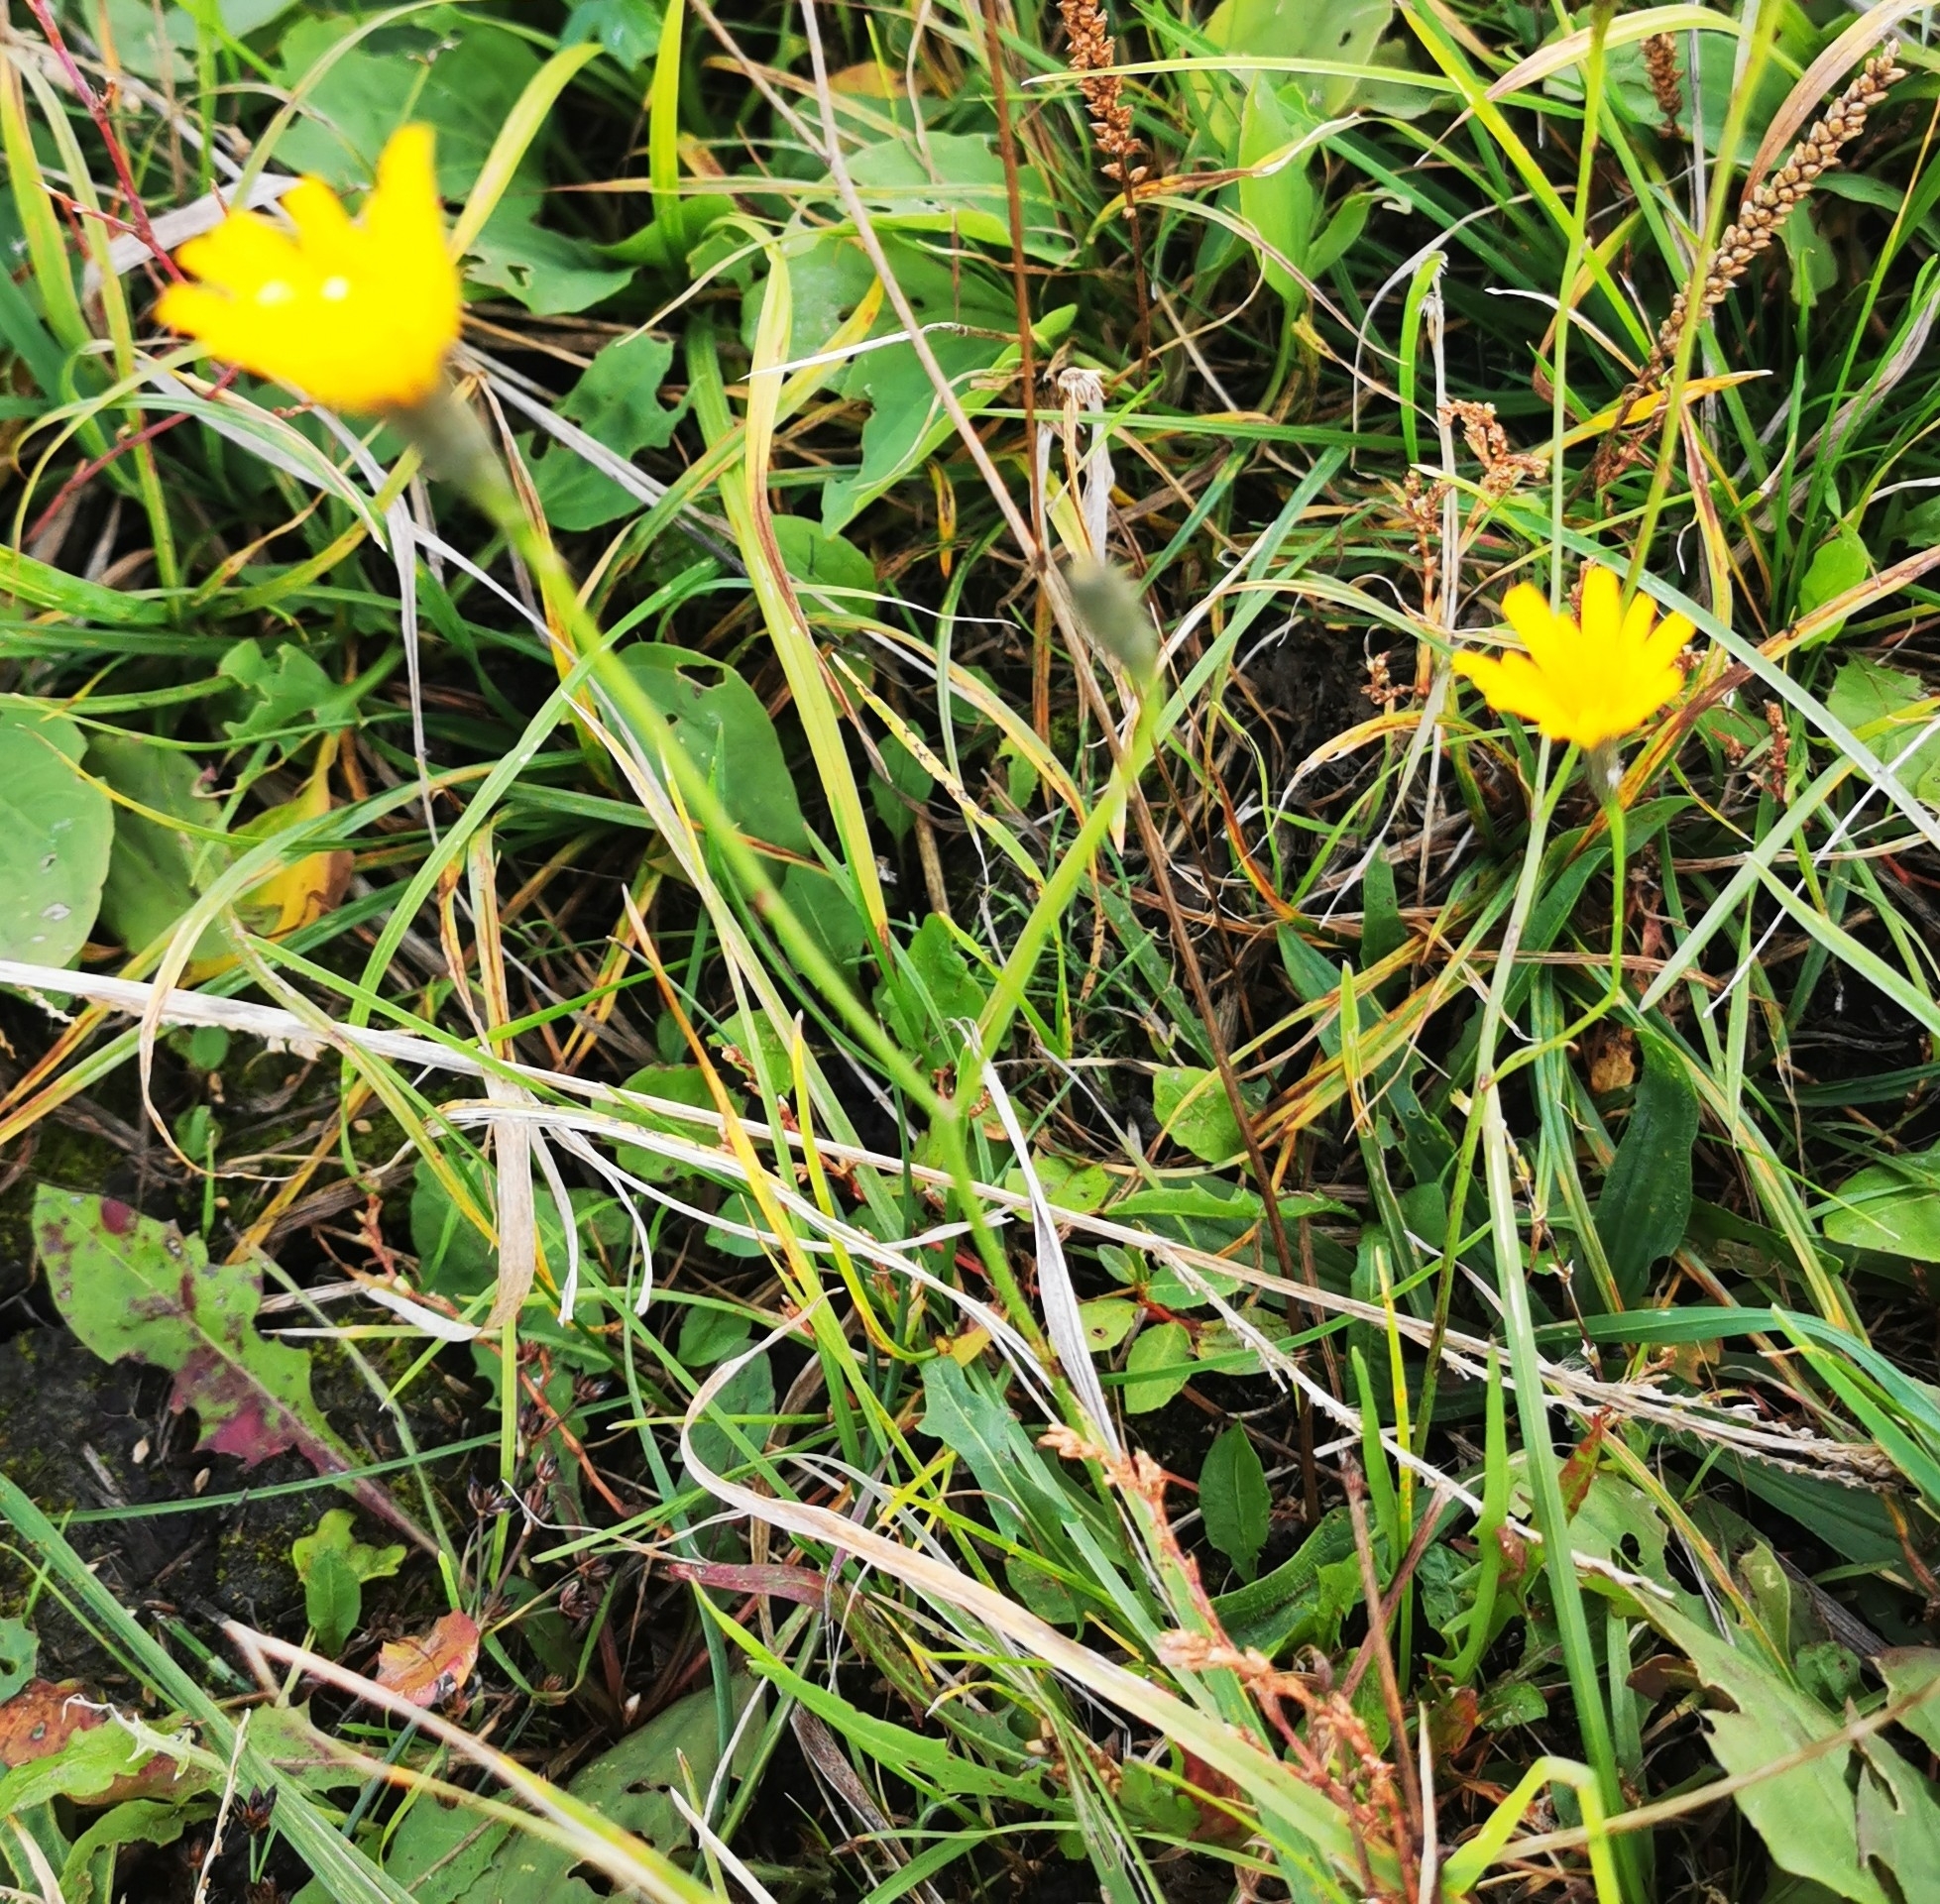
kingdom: Plantae
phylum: Tracheophyta
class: Magnoliopsida
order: Asterales
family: Asteraceae
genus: Scorzoneroides
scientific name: Scorzoneroides autumnalis
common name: Autumn hawkbit
